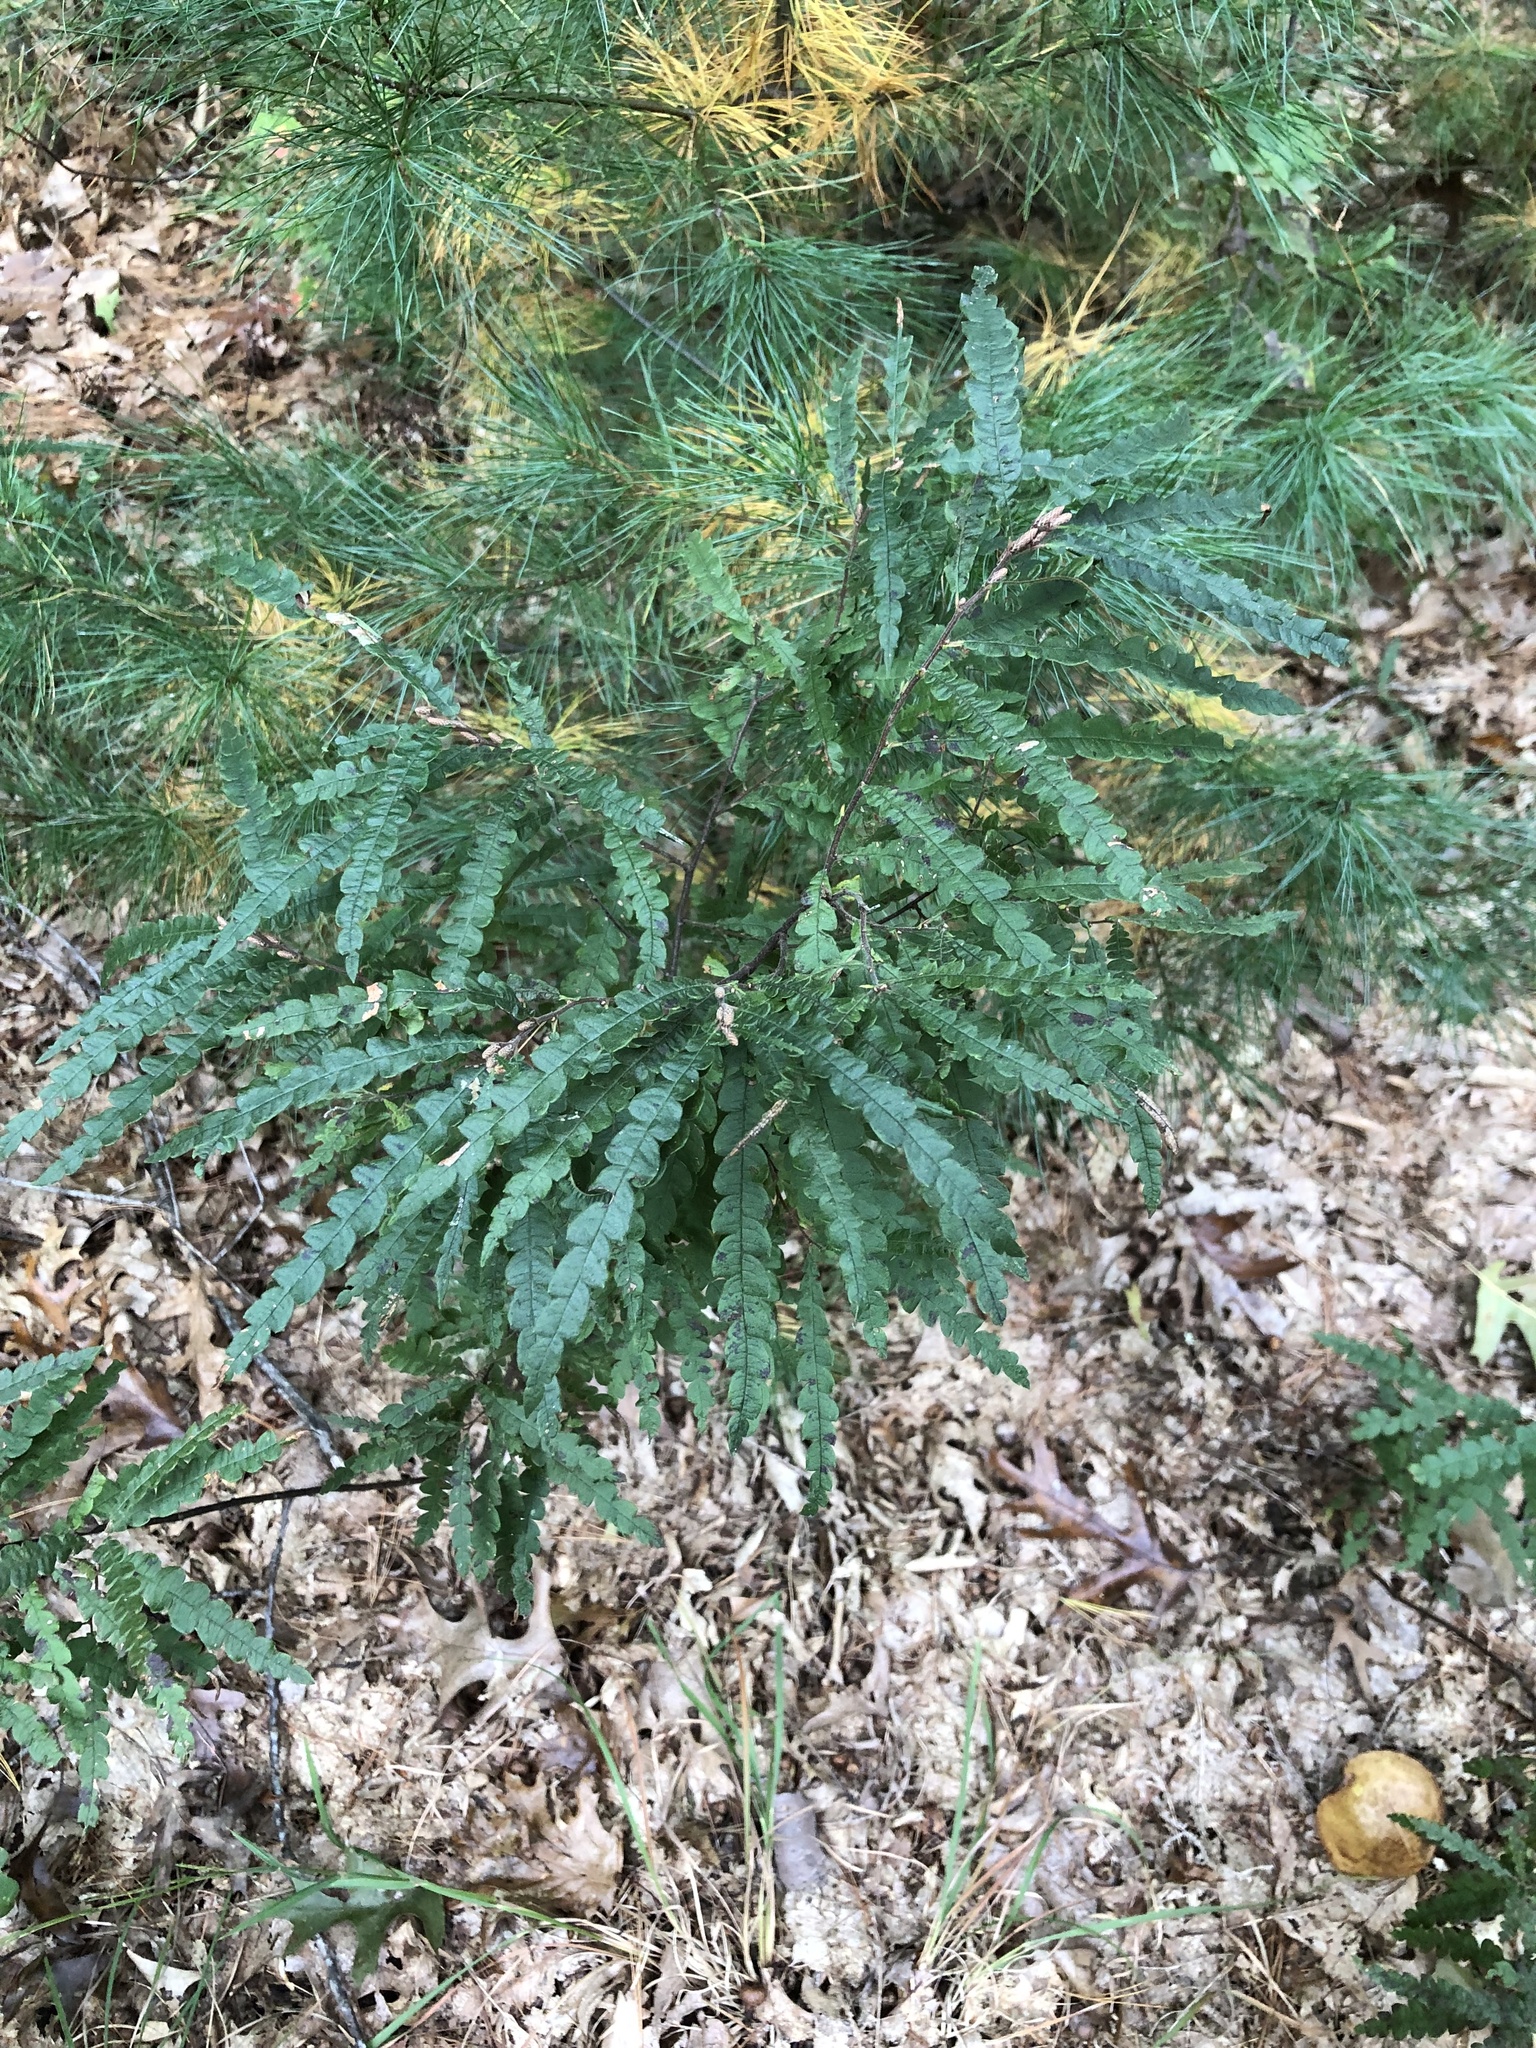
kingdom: Plantae
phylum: Tracheophyta
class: Magnoliopsida
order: Fagales
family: Myricaceae
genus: Comptonia
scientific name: Comptonia peregrina
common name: Sweet-fern
